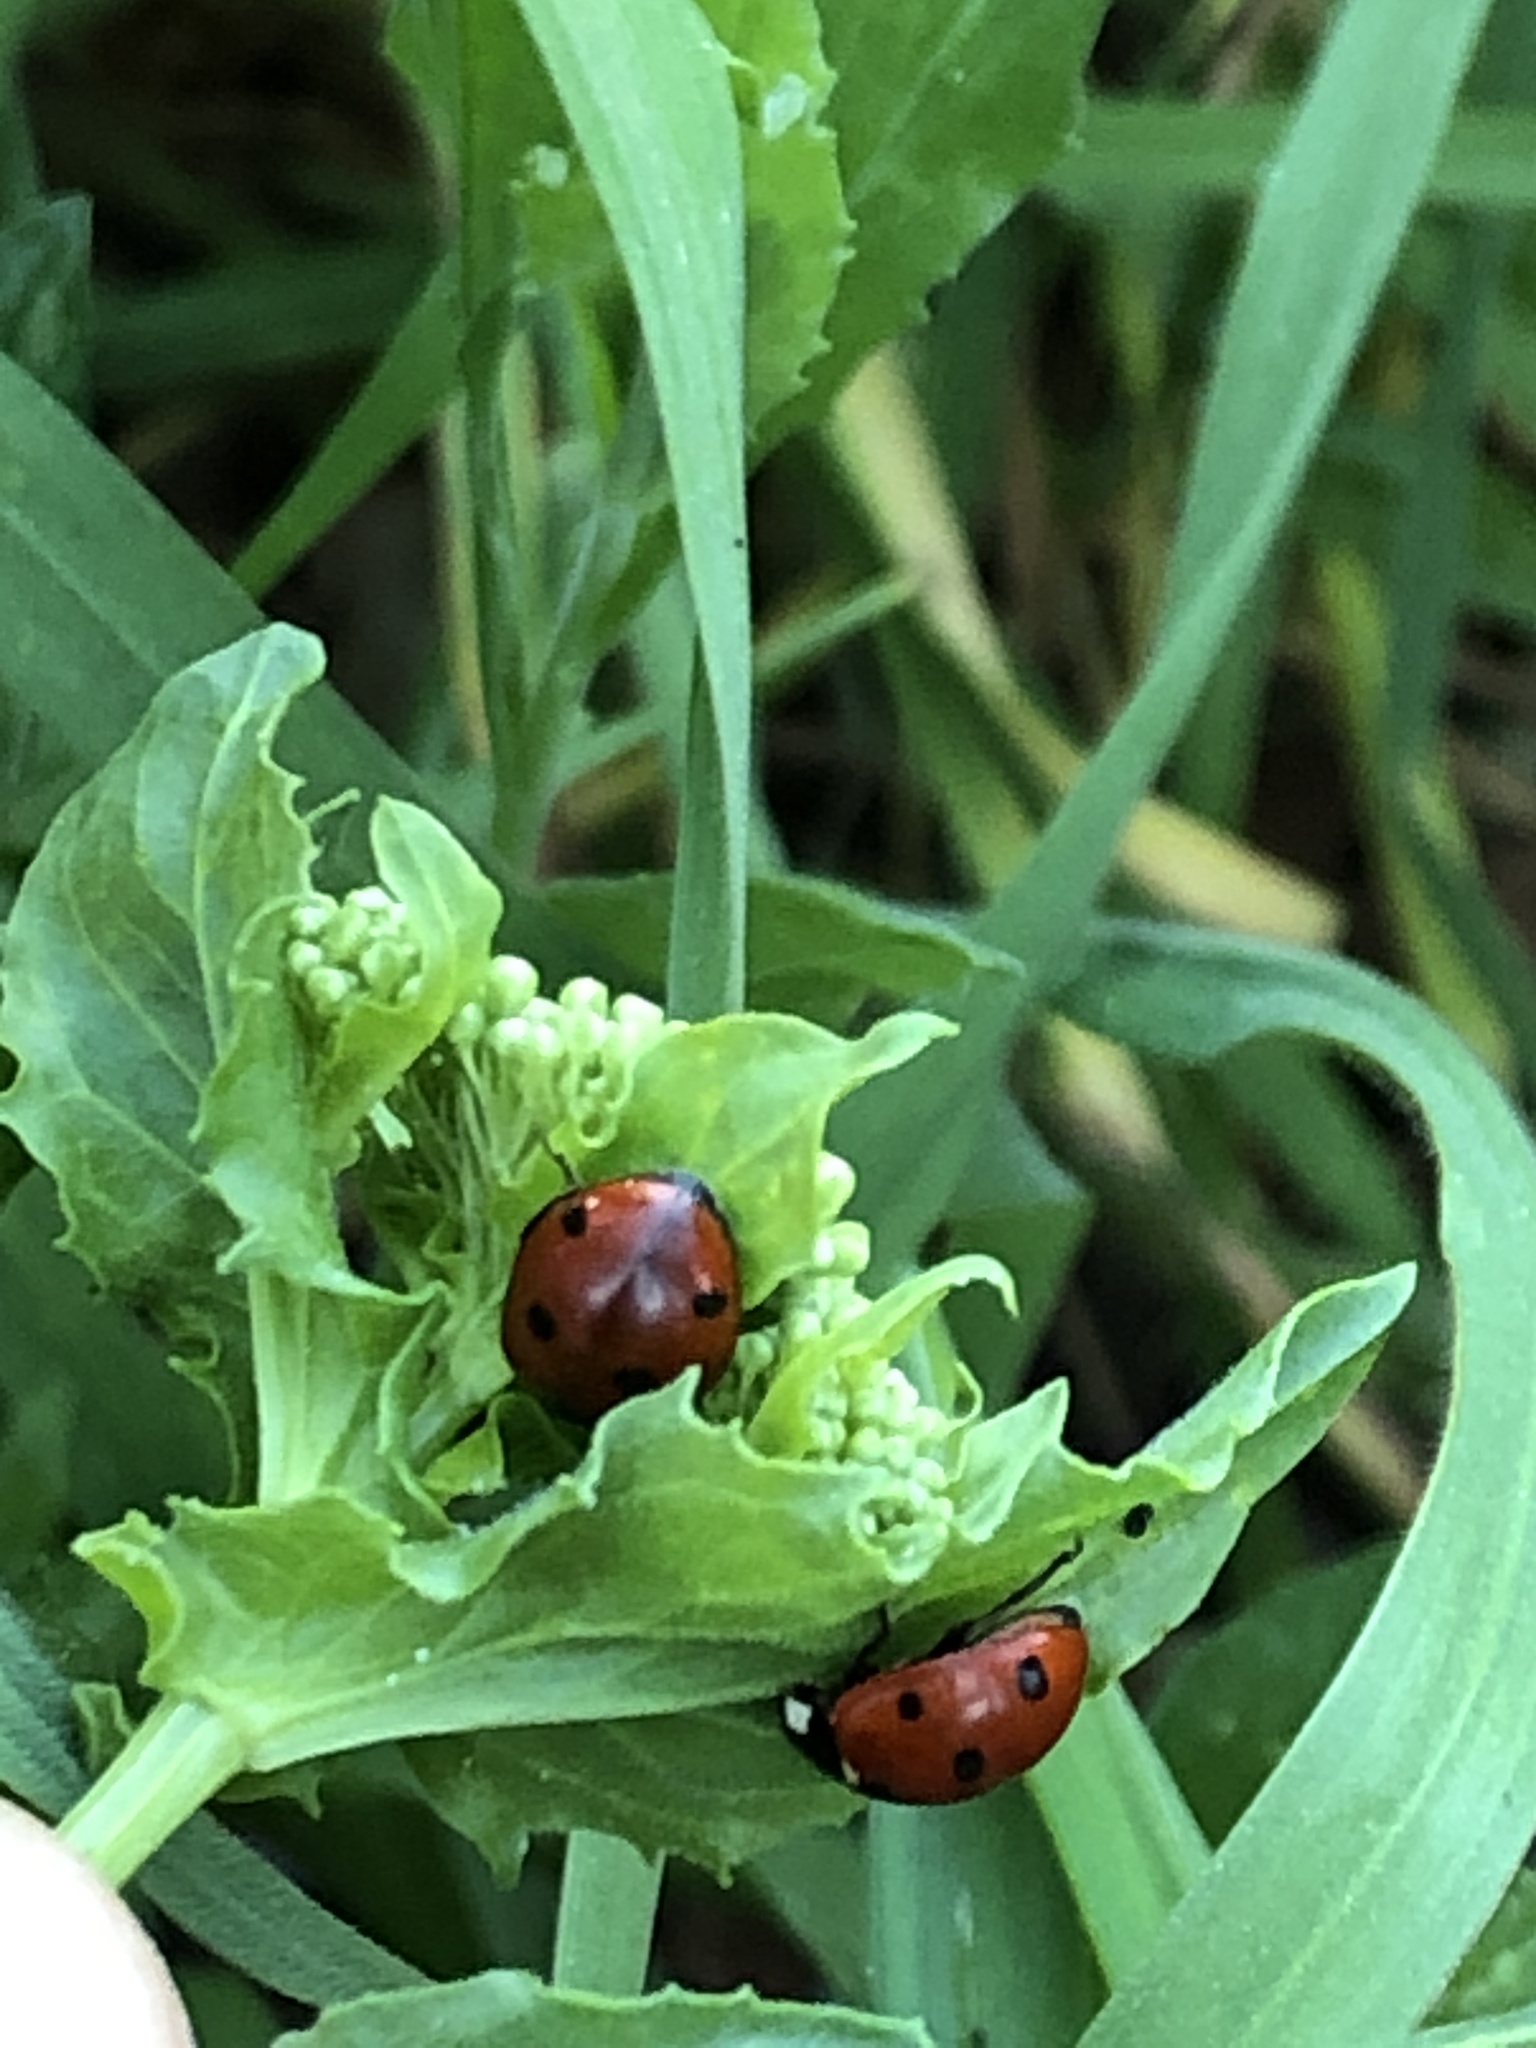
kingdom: Animalia
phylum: Arthropoda
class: Insecta
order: Coleoptera
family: Coccinellidae
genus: Coccinella
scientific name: Coccinella septempunctata
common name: Sevenspotted lady beetle
